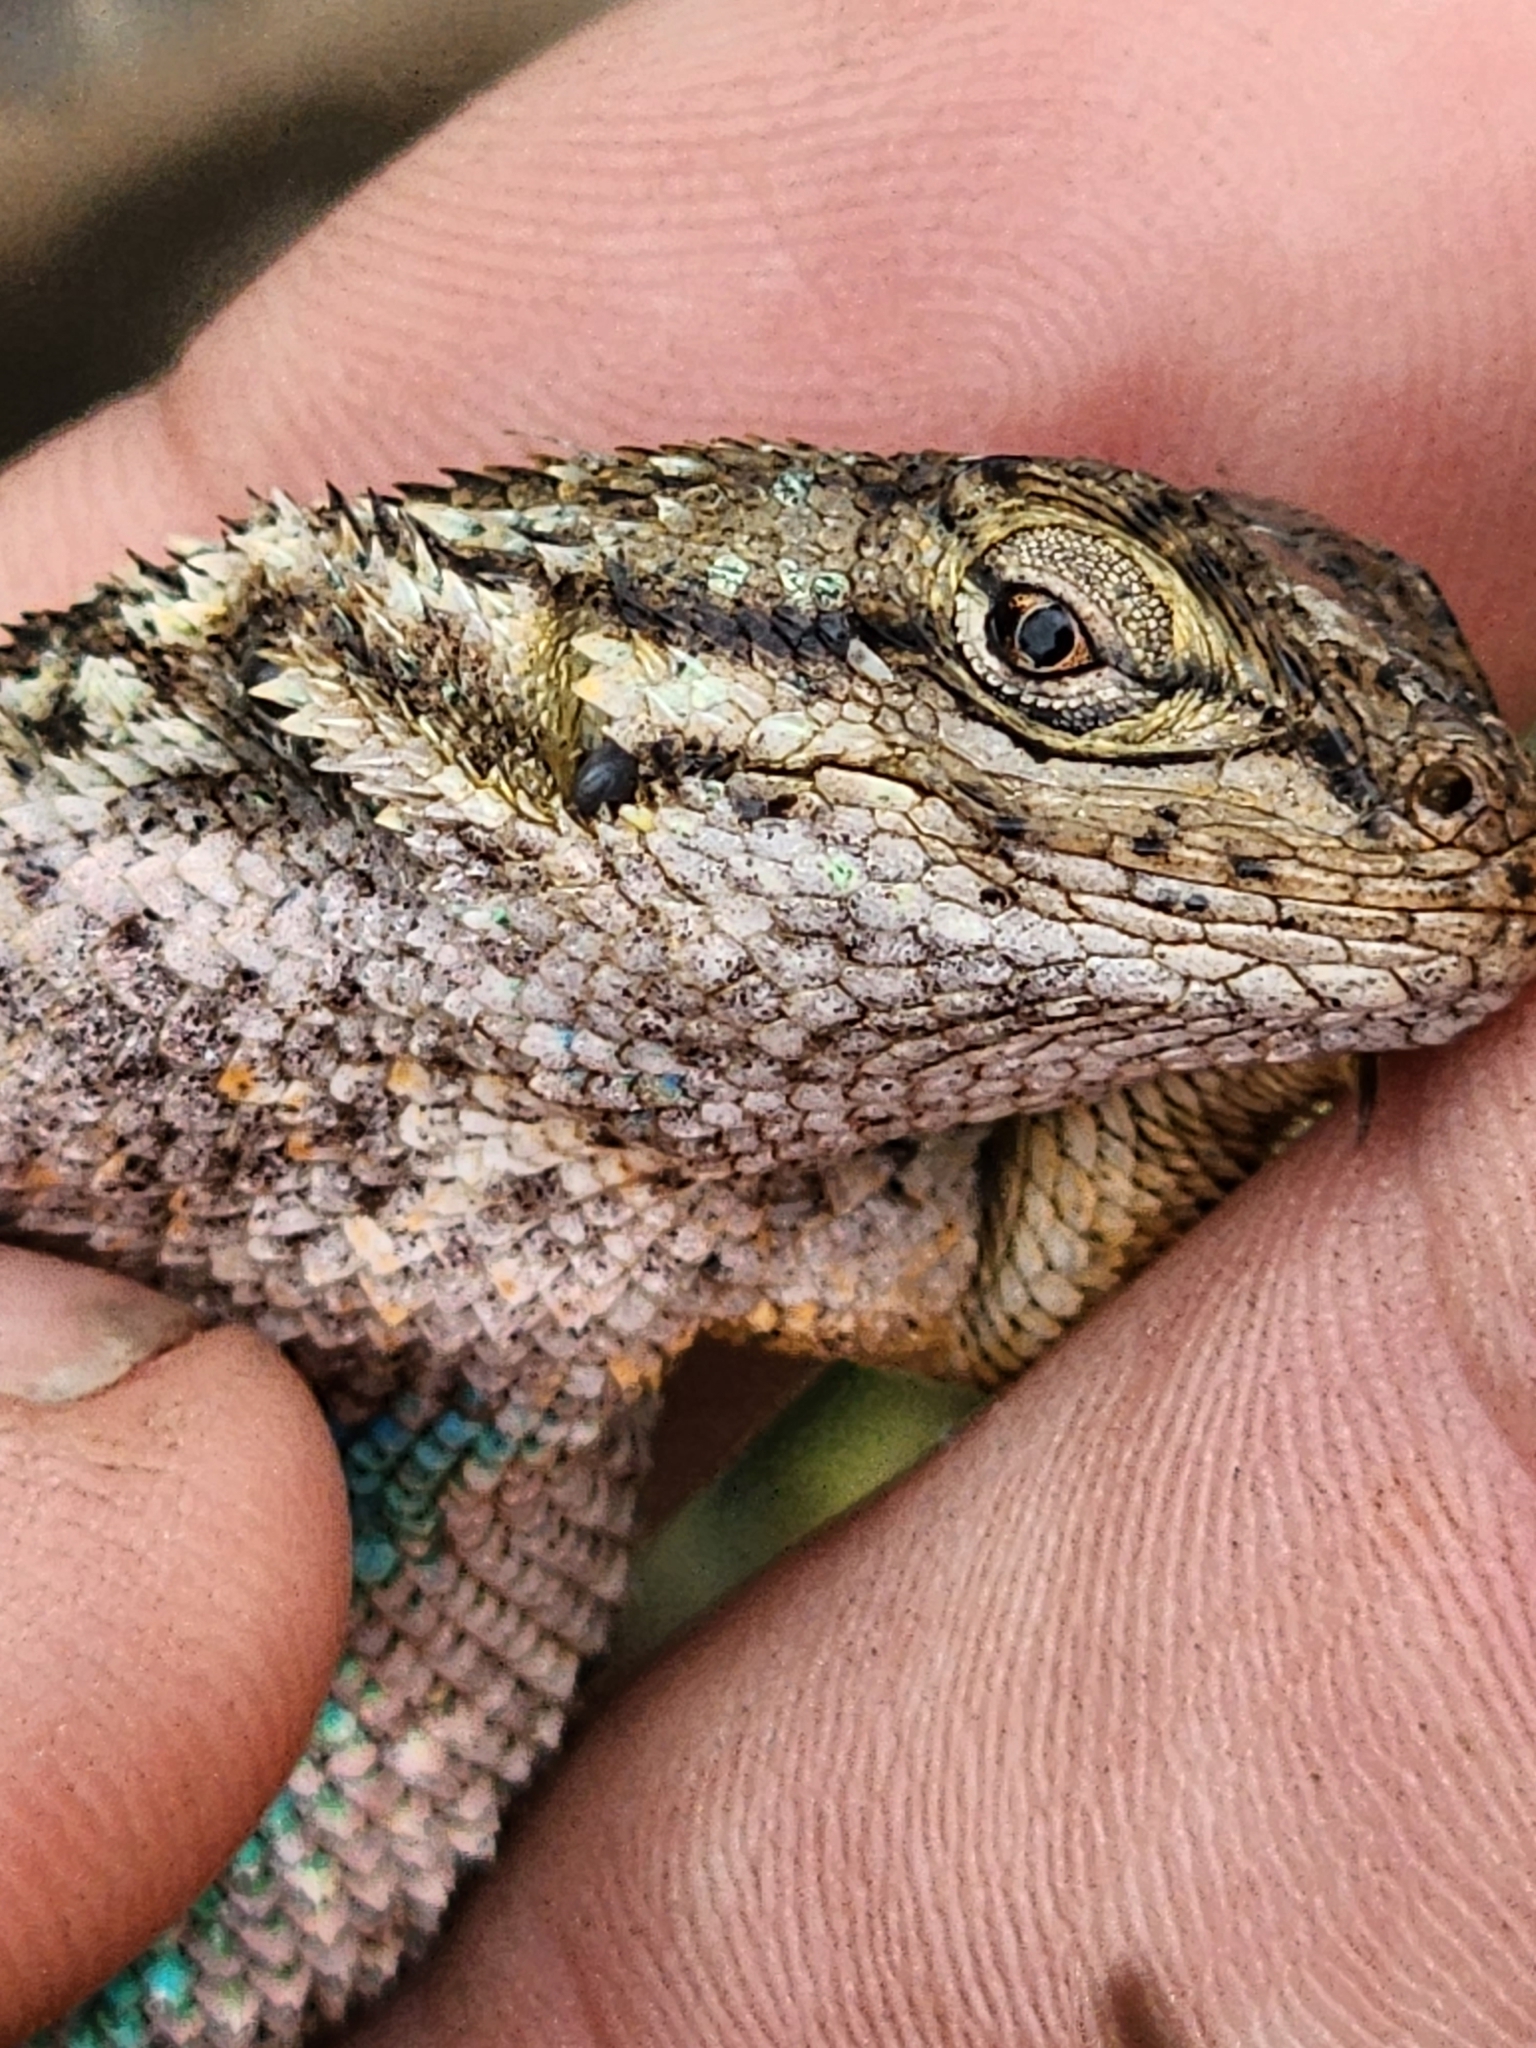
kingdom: Animalia
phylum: Chordata
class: Squamata
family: Phrynosomatidae
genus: Sceloporus
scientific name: Sceloporus occidentalis
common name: Western fence lizard
